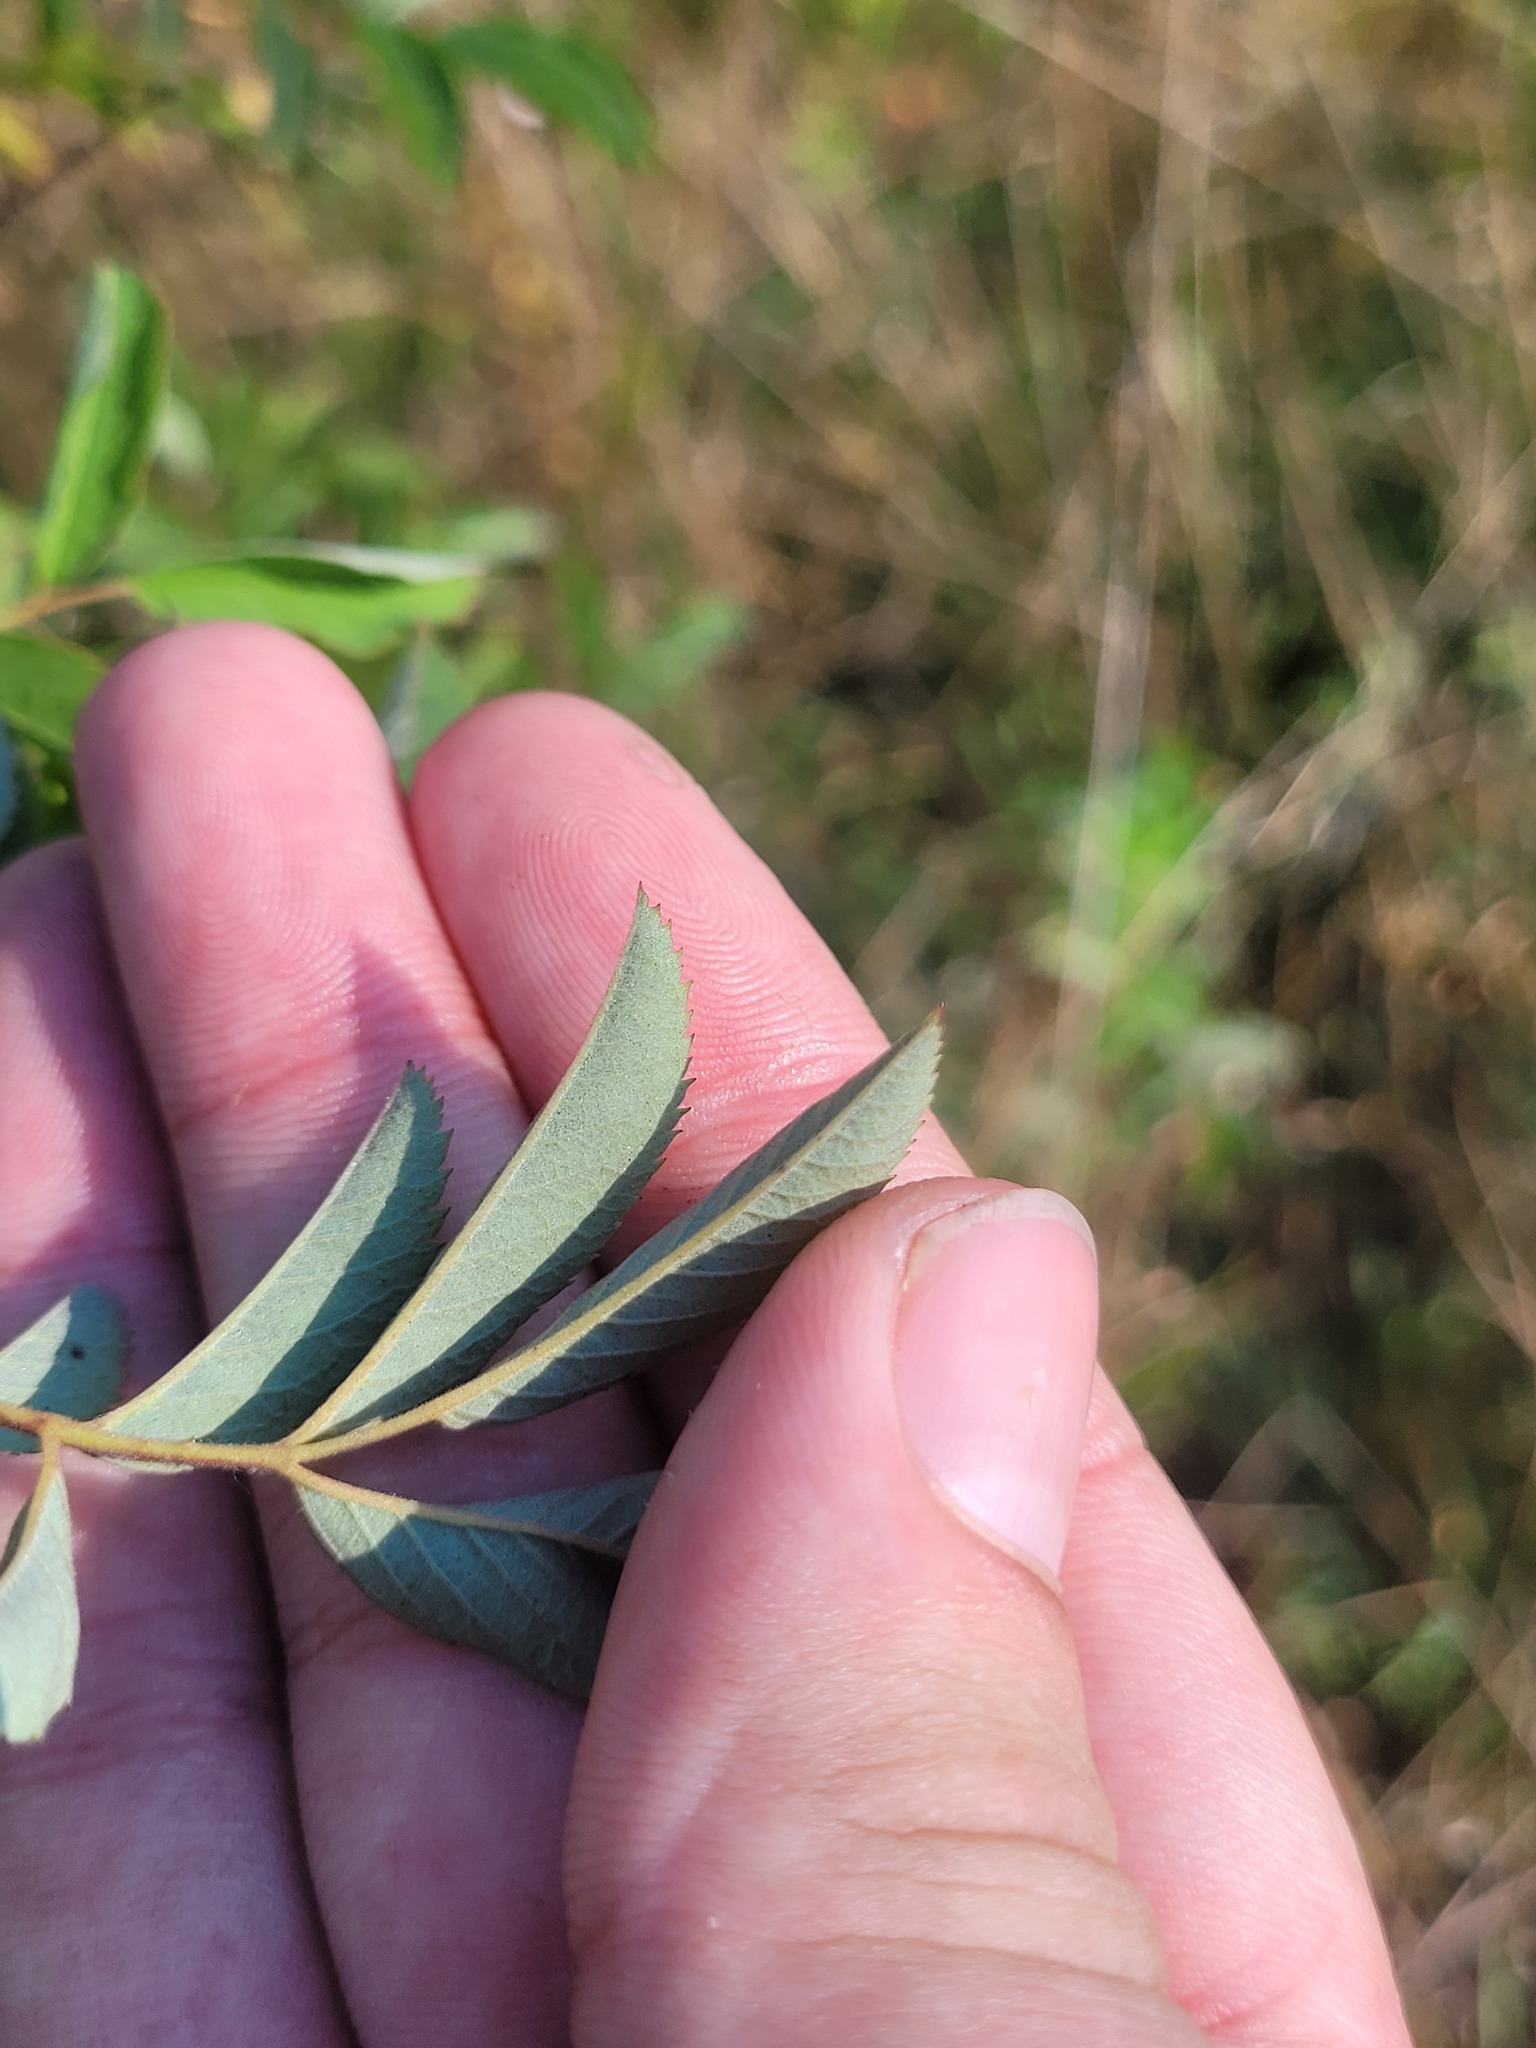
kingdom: Plantae
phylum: Tracheophyta
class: Magnoliopsida
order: Rosales
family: Rosaceae
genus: Rosa
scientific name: Rosa majalis
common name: Cinnamon rose
